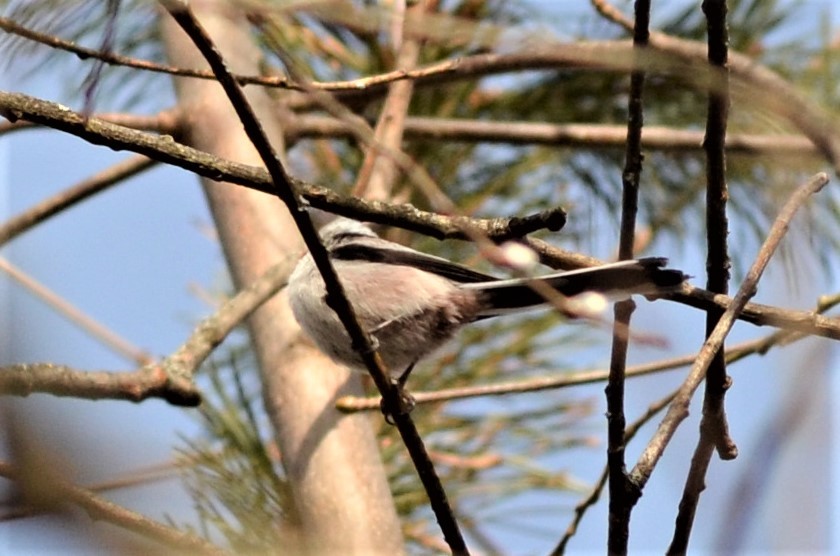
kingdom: Animalia
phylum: Chordata
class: Aves
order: Passeriformes
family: Aegithalidae
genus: Aegithalos
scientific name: Aegithalos caudatus
